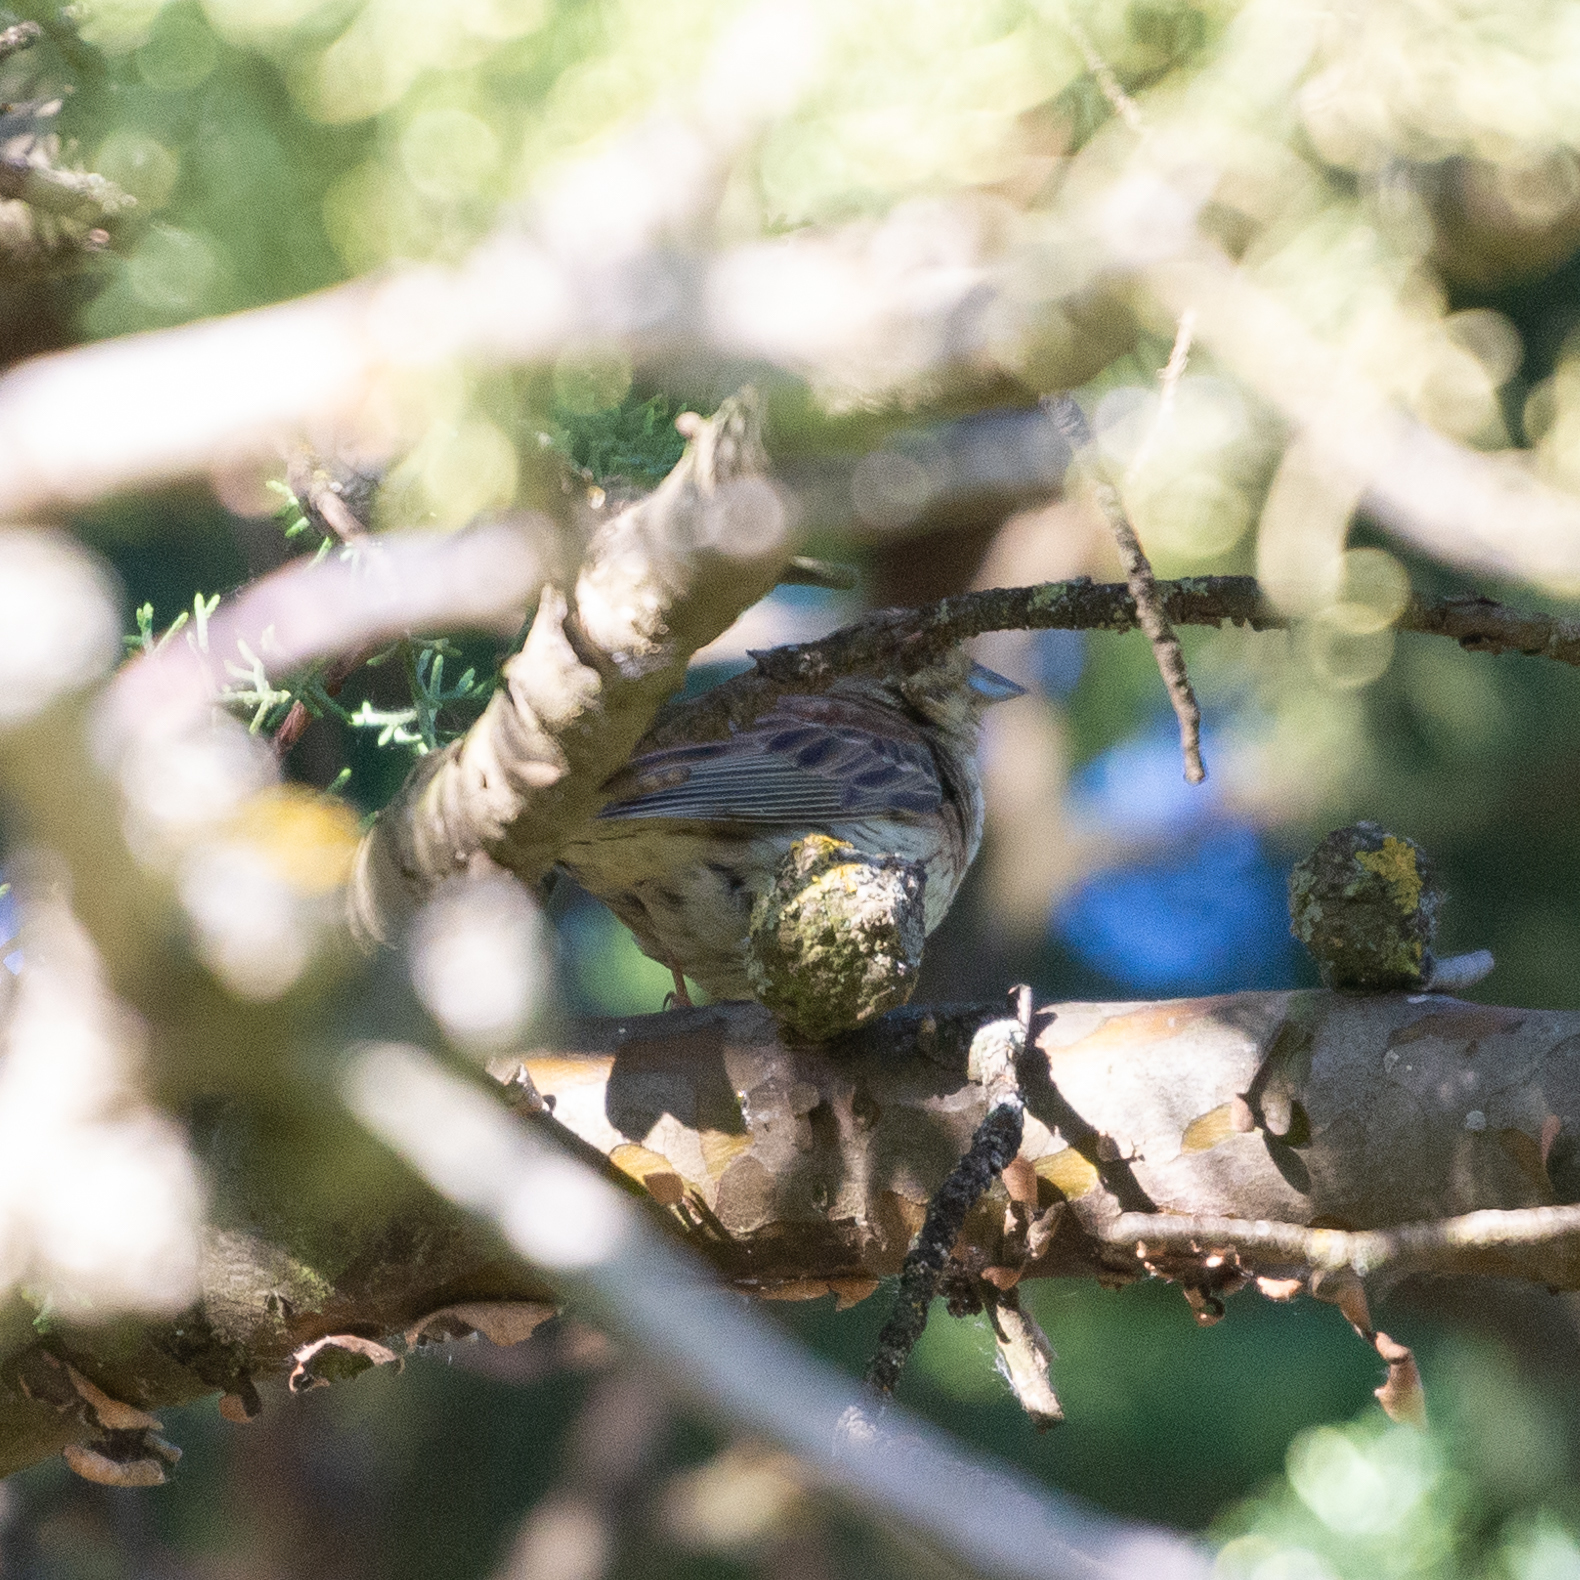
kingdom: Animalia
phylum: Chordata
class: Aves
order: Passeriformes
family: Emberizidae
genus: Emberiza
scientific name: Emberiza citrinella
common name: Yellowhammer
